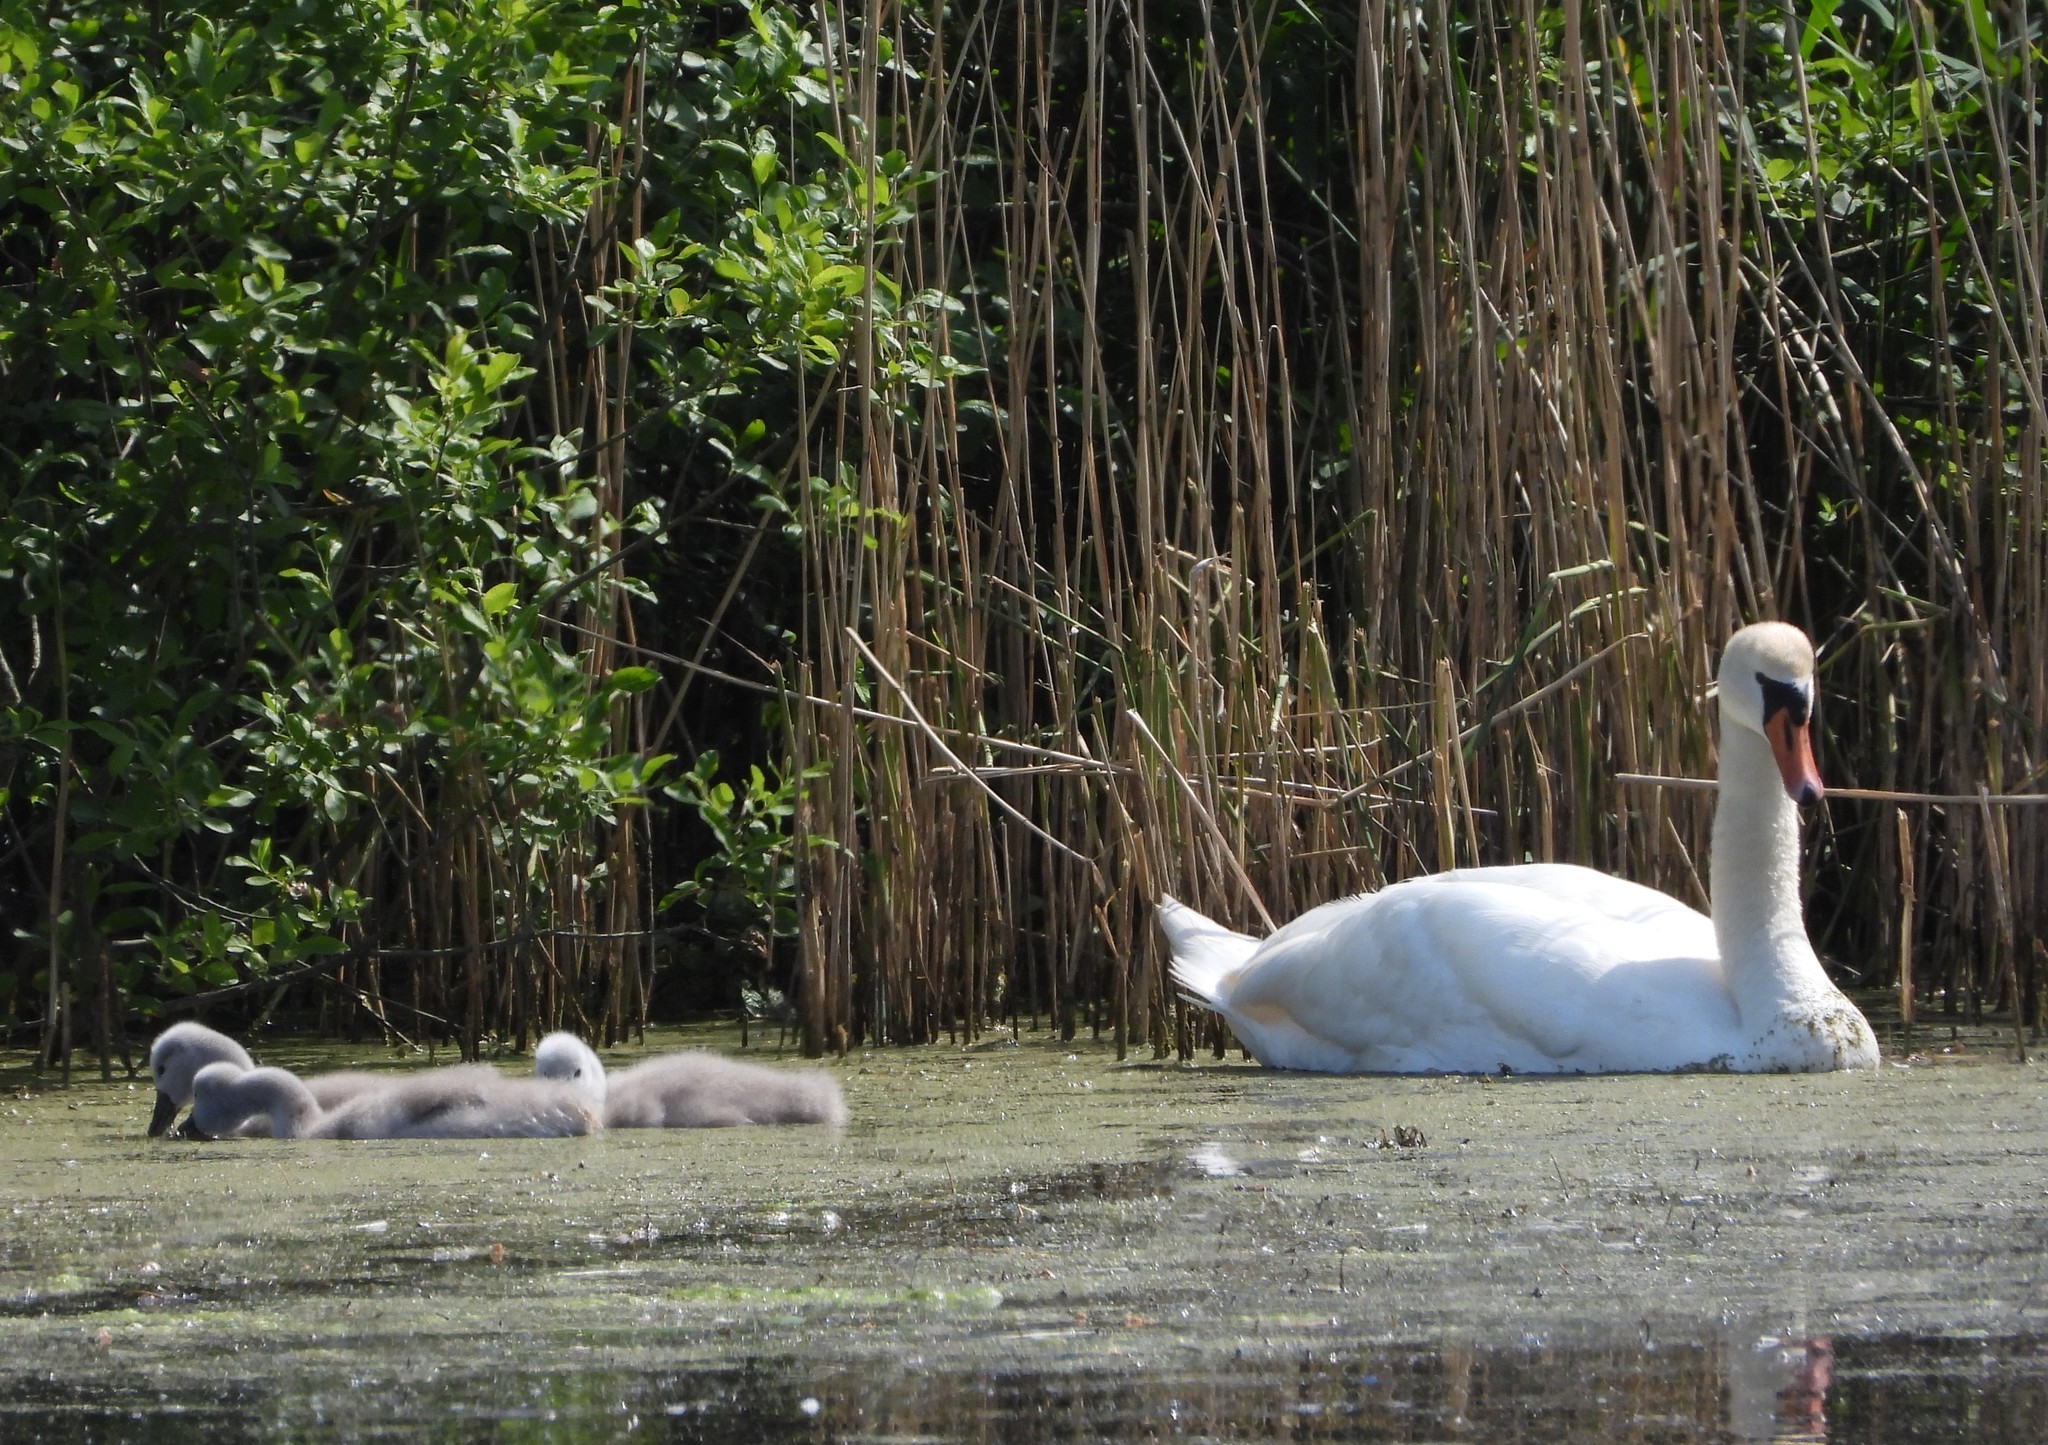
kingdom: Animalia
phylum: Chordata
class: Aves
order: Anseriformes
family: Anatidae
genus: Cygnus
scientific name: Cygnus olor
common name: Mute swan
